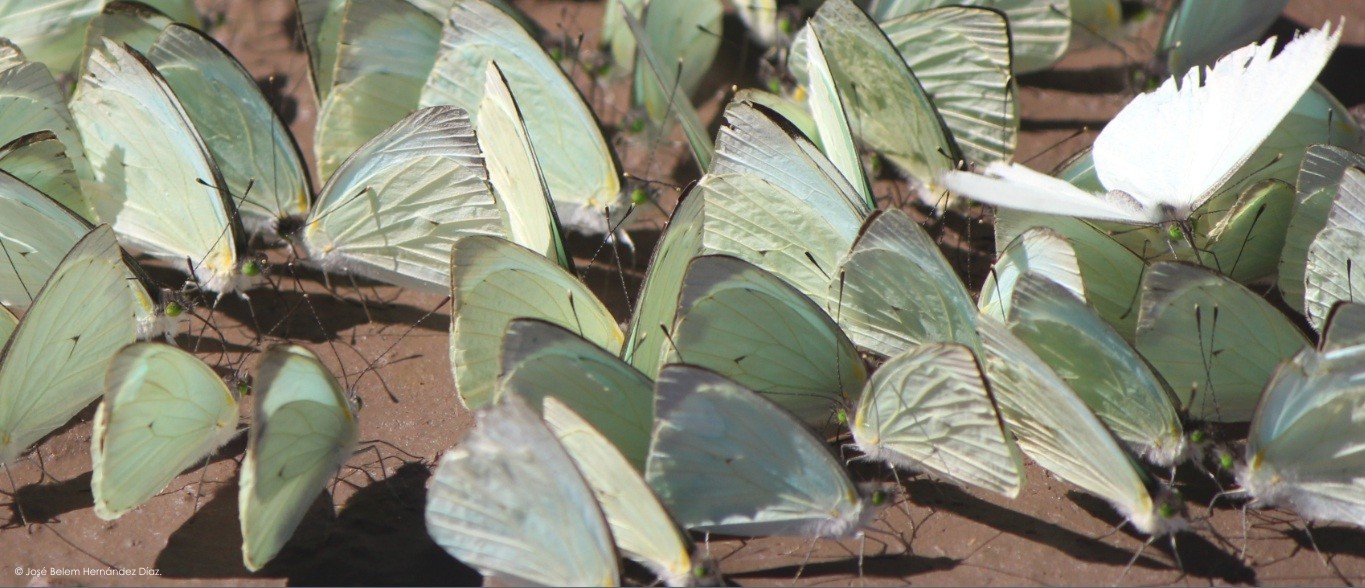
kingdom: Animalia
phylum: Arthropoda
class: Insecta
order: Lepidoptera
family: Pieridae
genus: Leptophobia
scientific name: Leptophobia aripa
